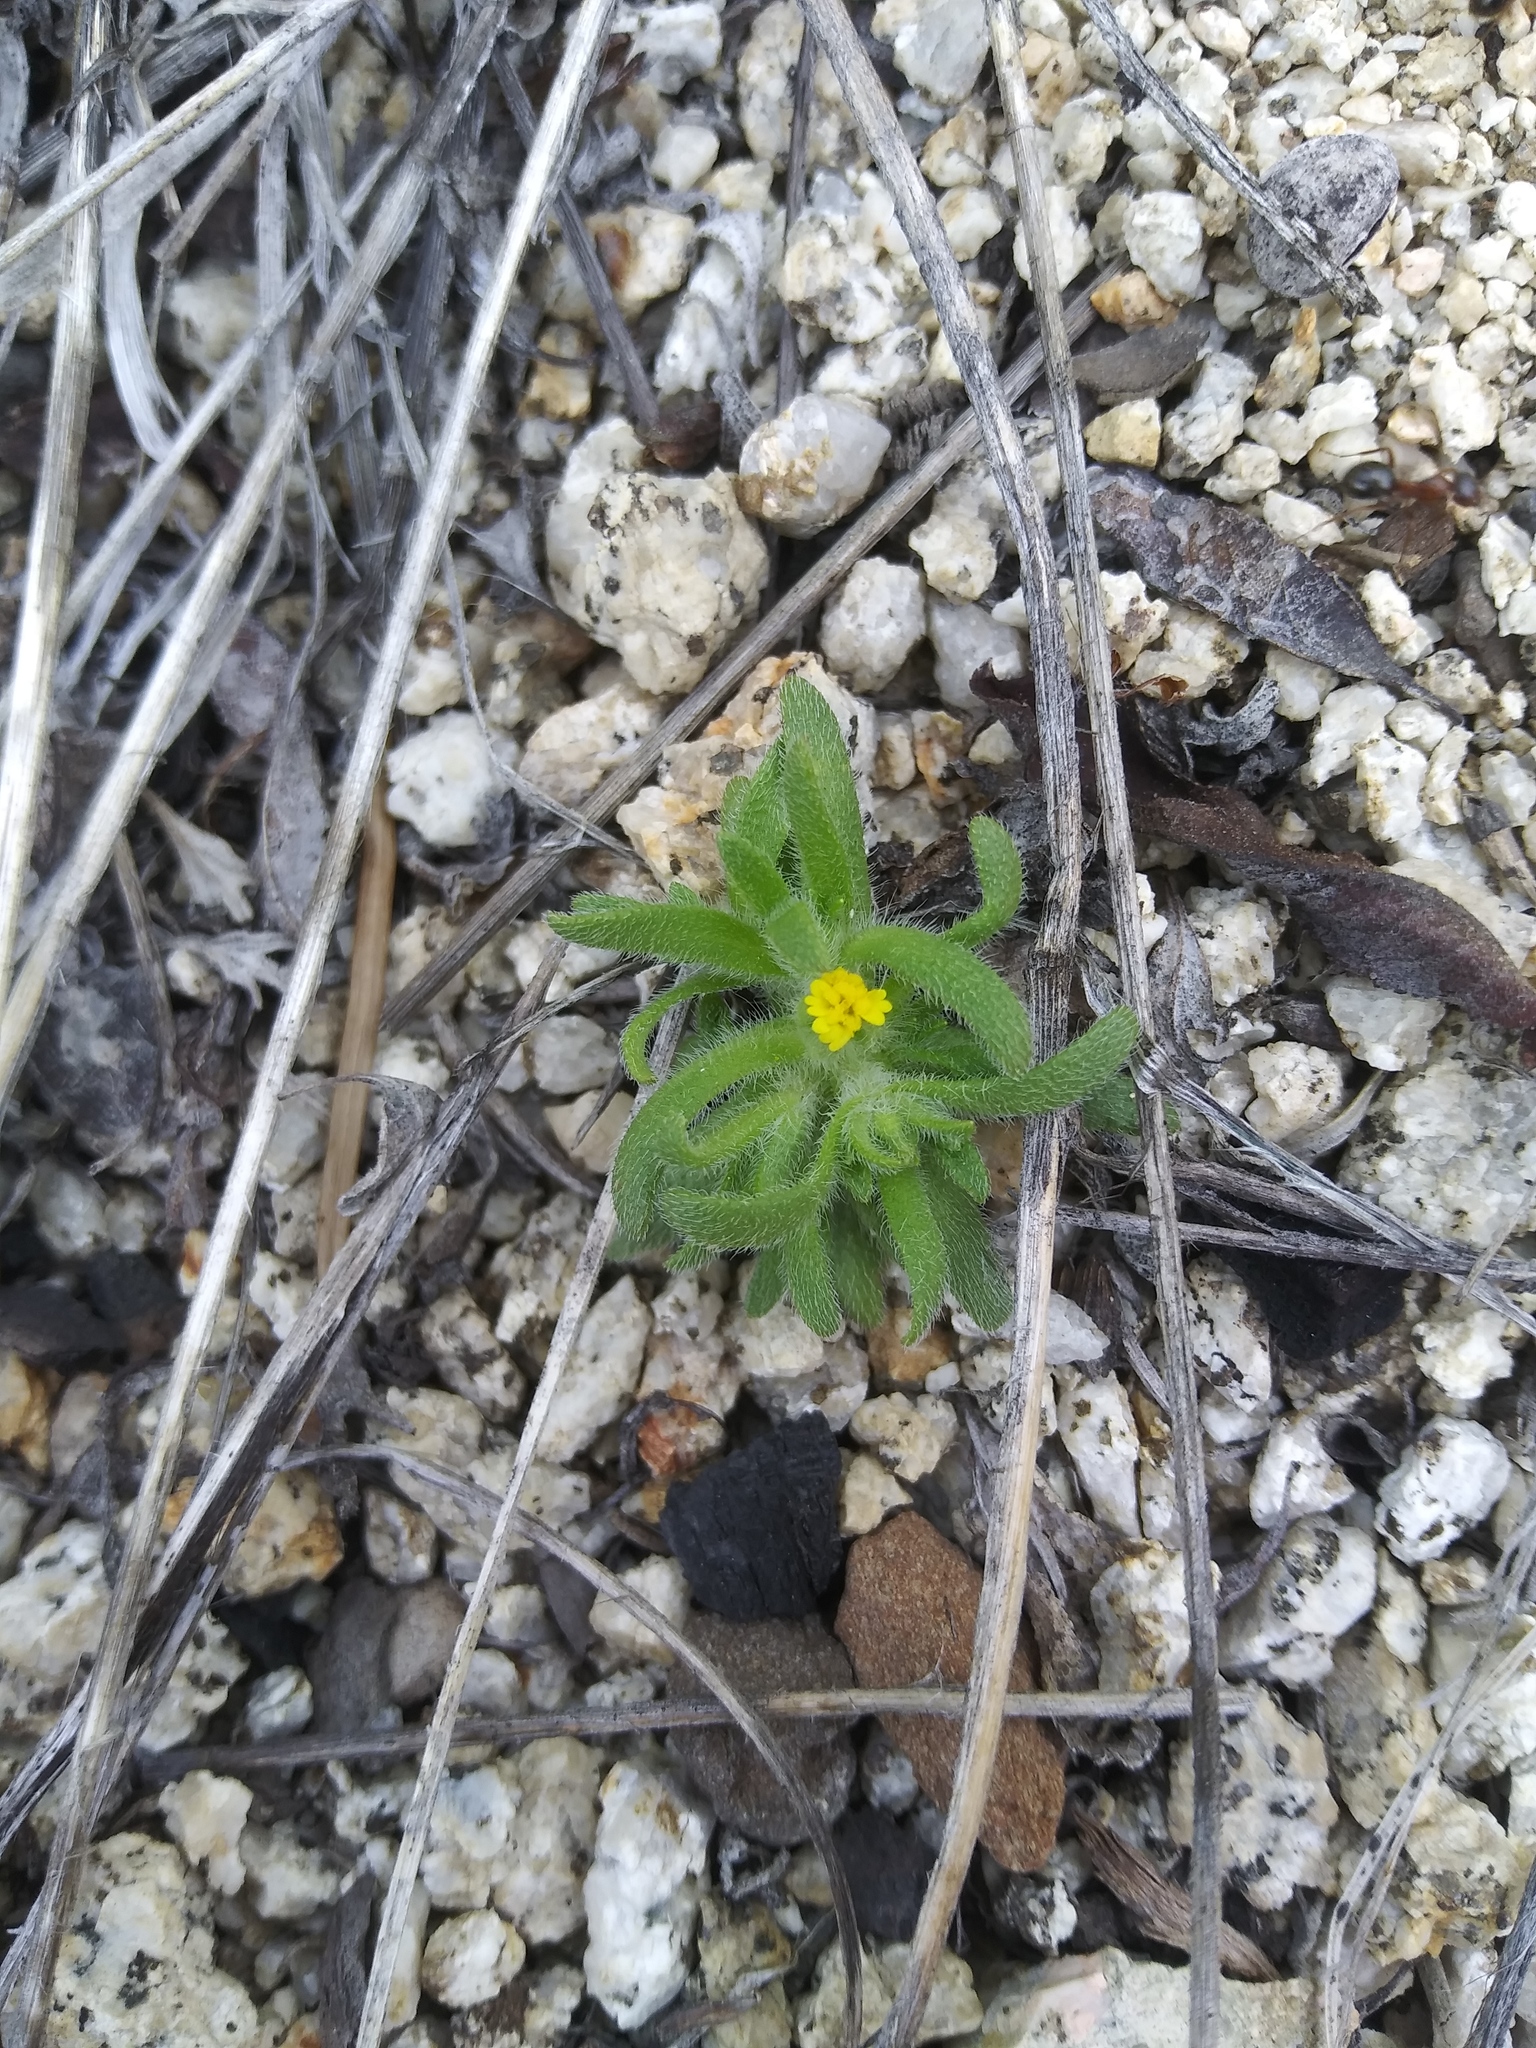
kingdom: Plantae
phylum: Tracheophyta
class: Magnoliopsida
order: Asterales
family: Asteraceae
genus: Hemizonella
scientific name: Hemizonella minima
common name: Opposite-leaved tarweed
